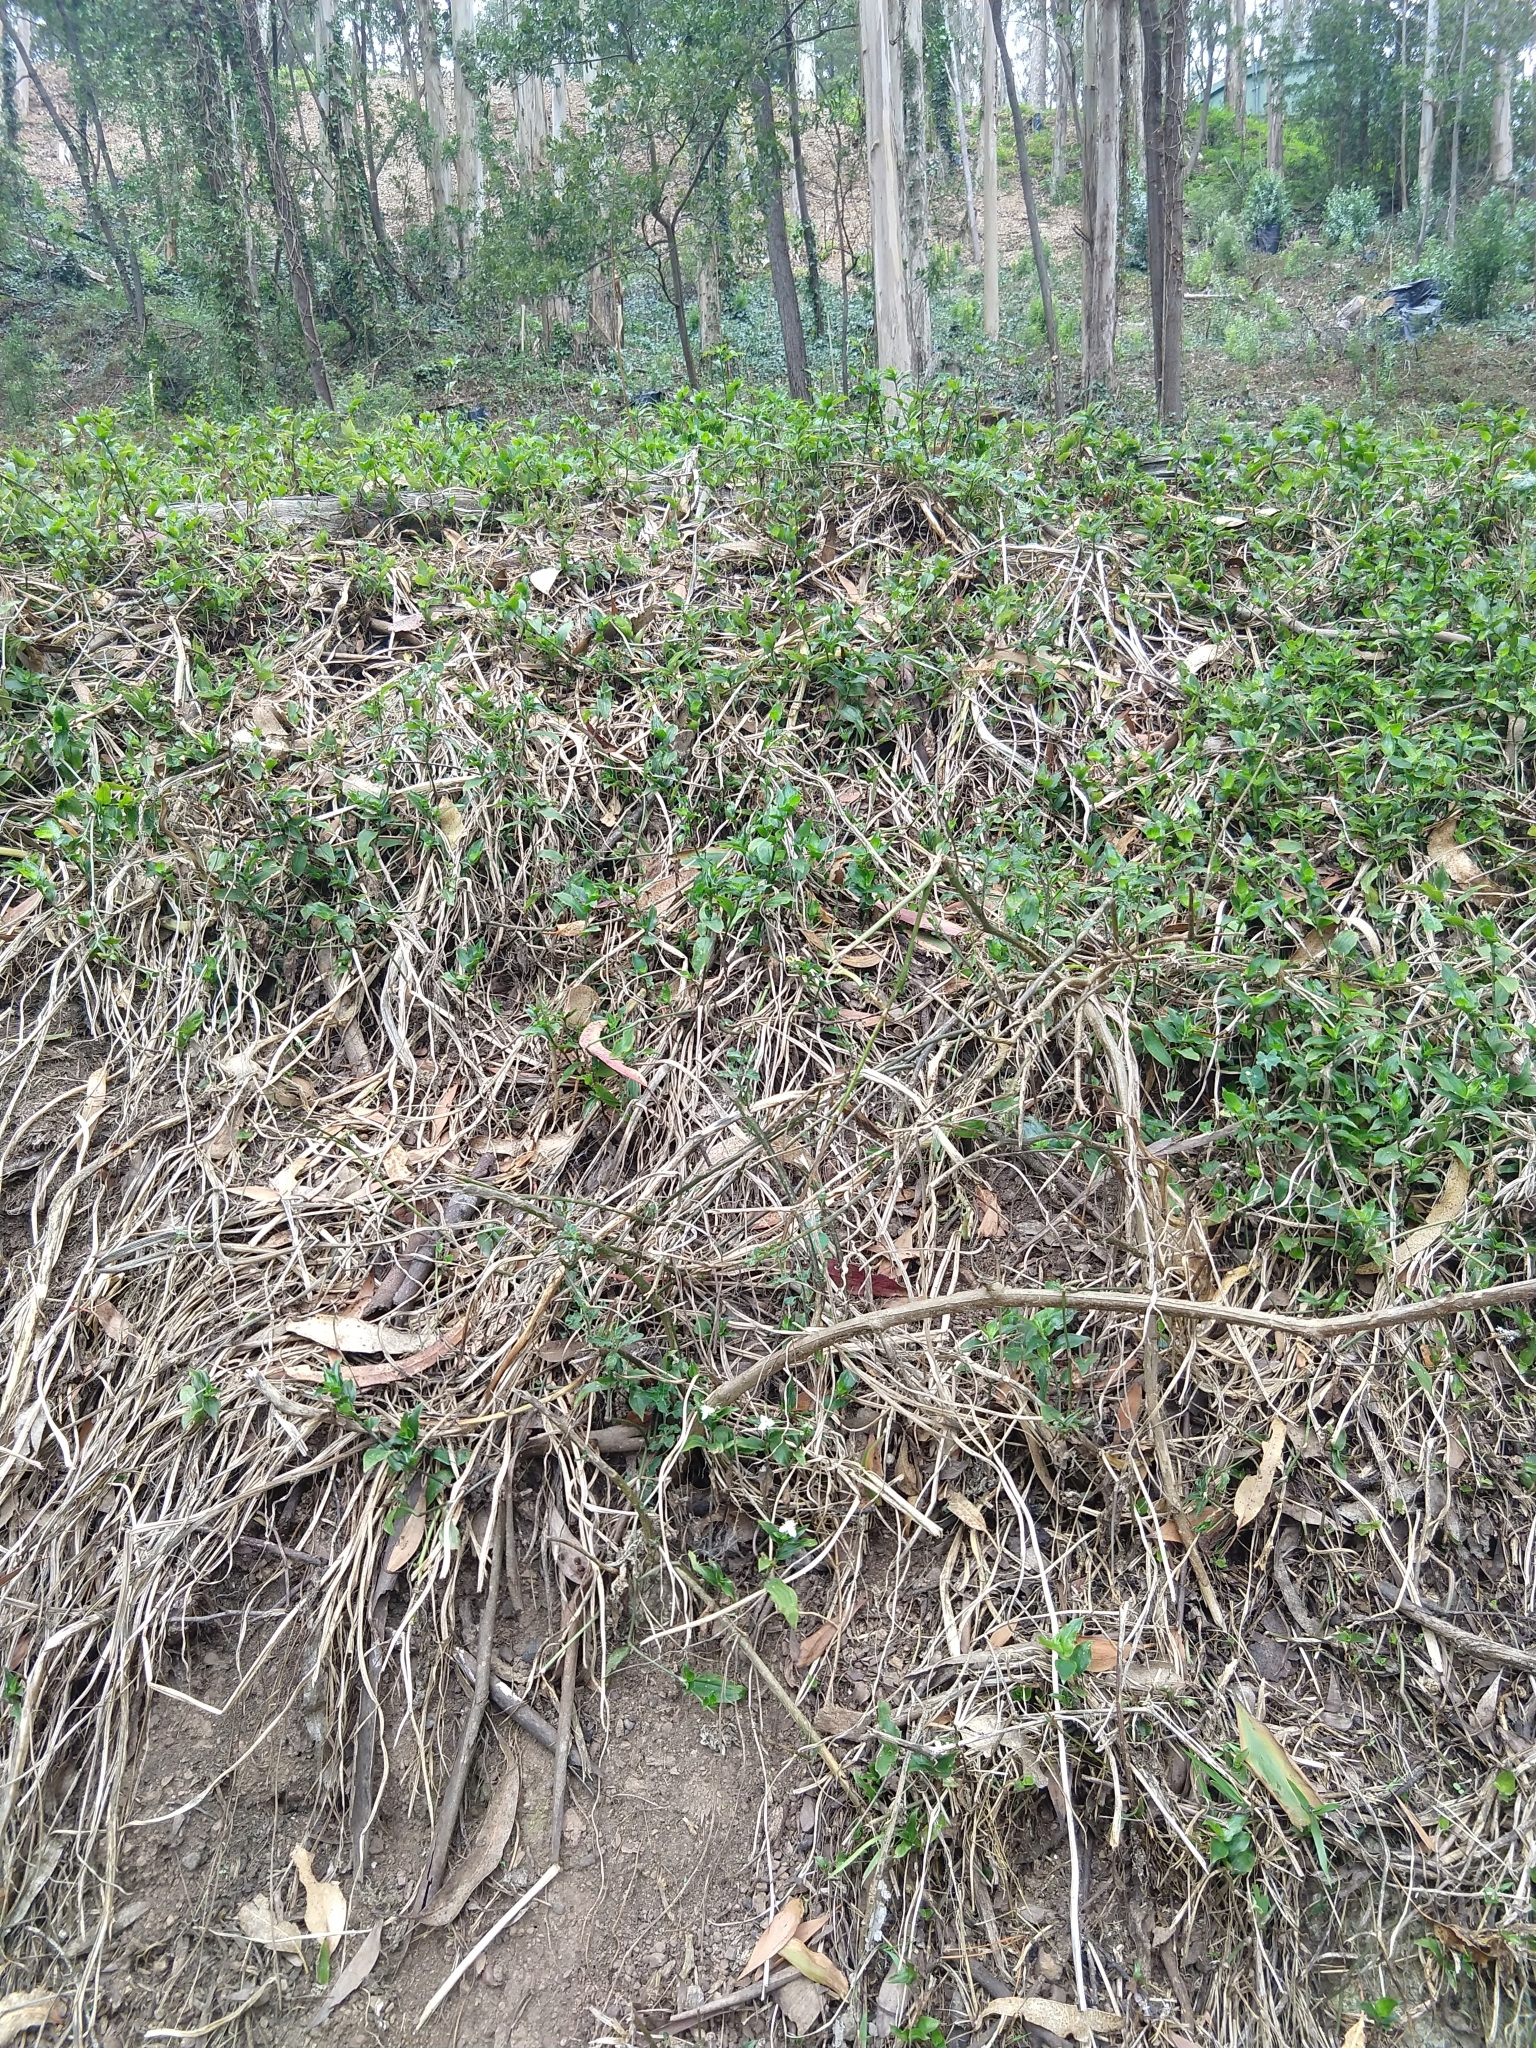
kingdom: Plantae
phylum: Tracheophyta
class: Liliopsida
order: Commelinales
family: Commelinaceae
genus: Tradescantia
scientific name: Tradescantia fluminensis
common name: Wandering-jew
